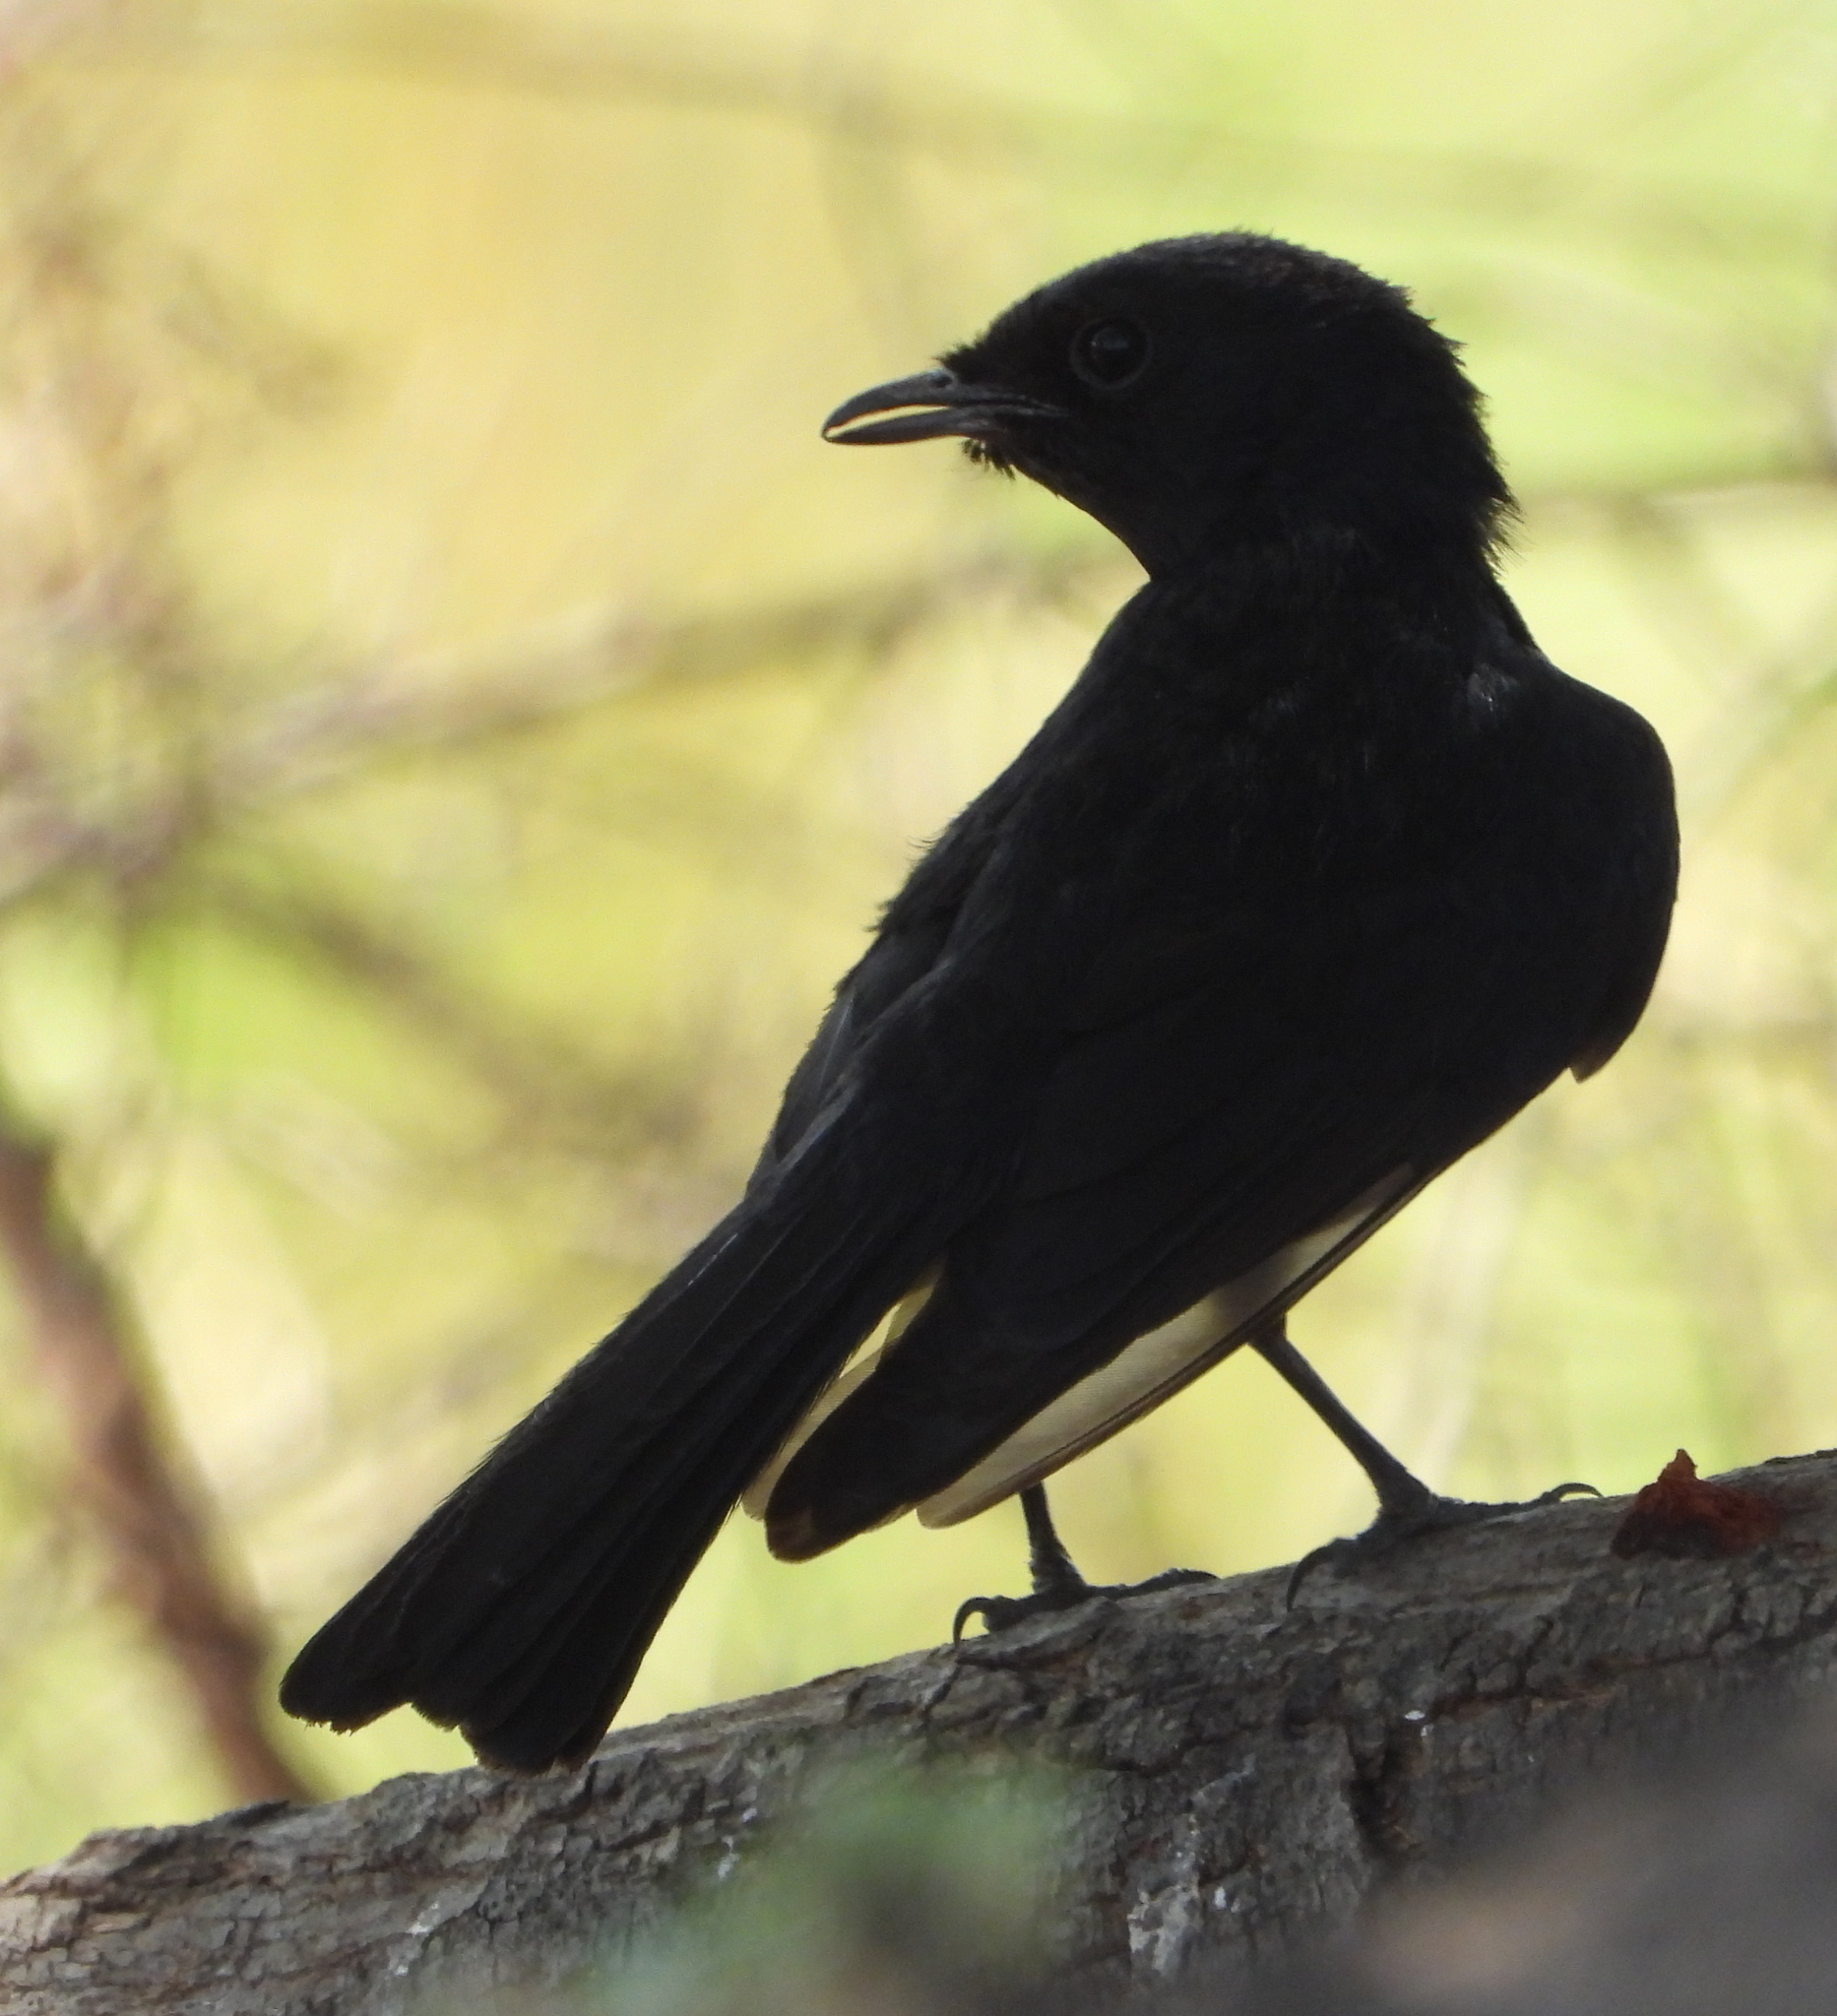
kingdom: Animalia
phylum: Chordata
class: Aves
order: Passeriformes
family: Muscicapidae
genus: Melaenornis
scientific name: Melaenornis pammelaina
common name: Southern black flycatcher
